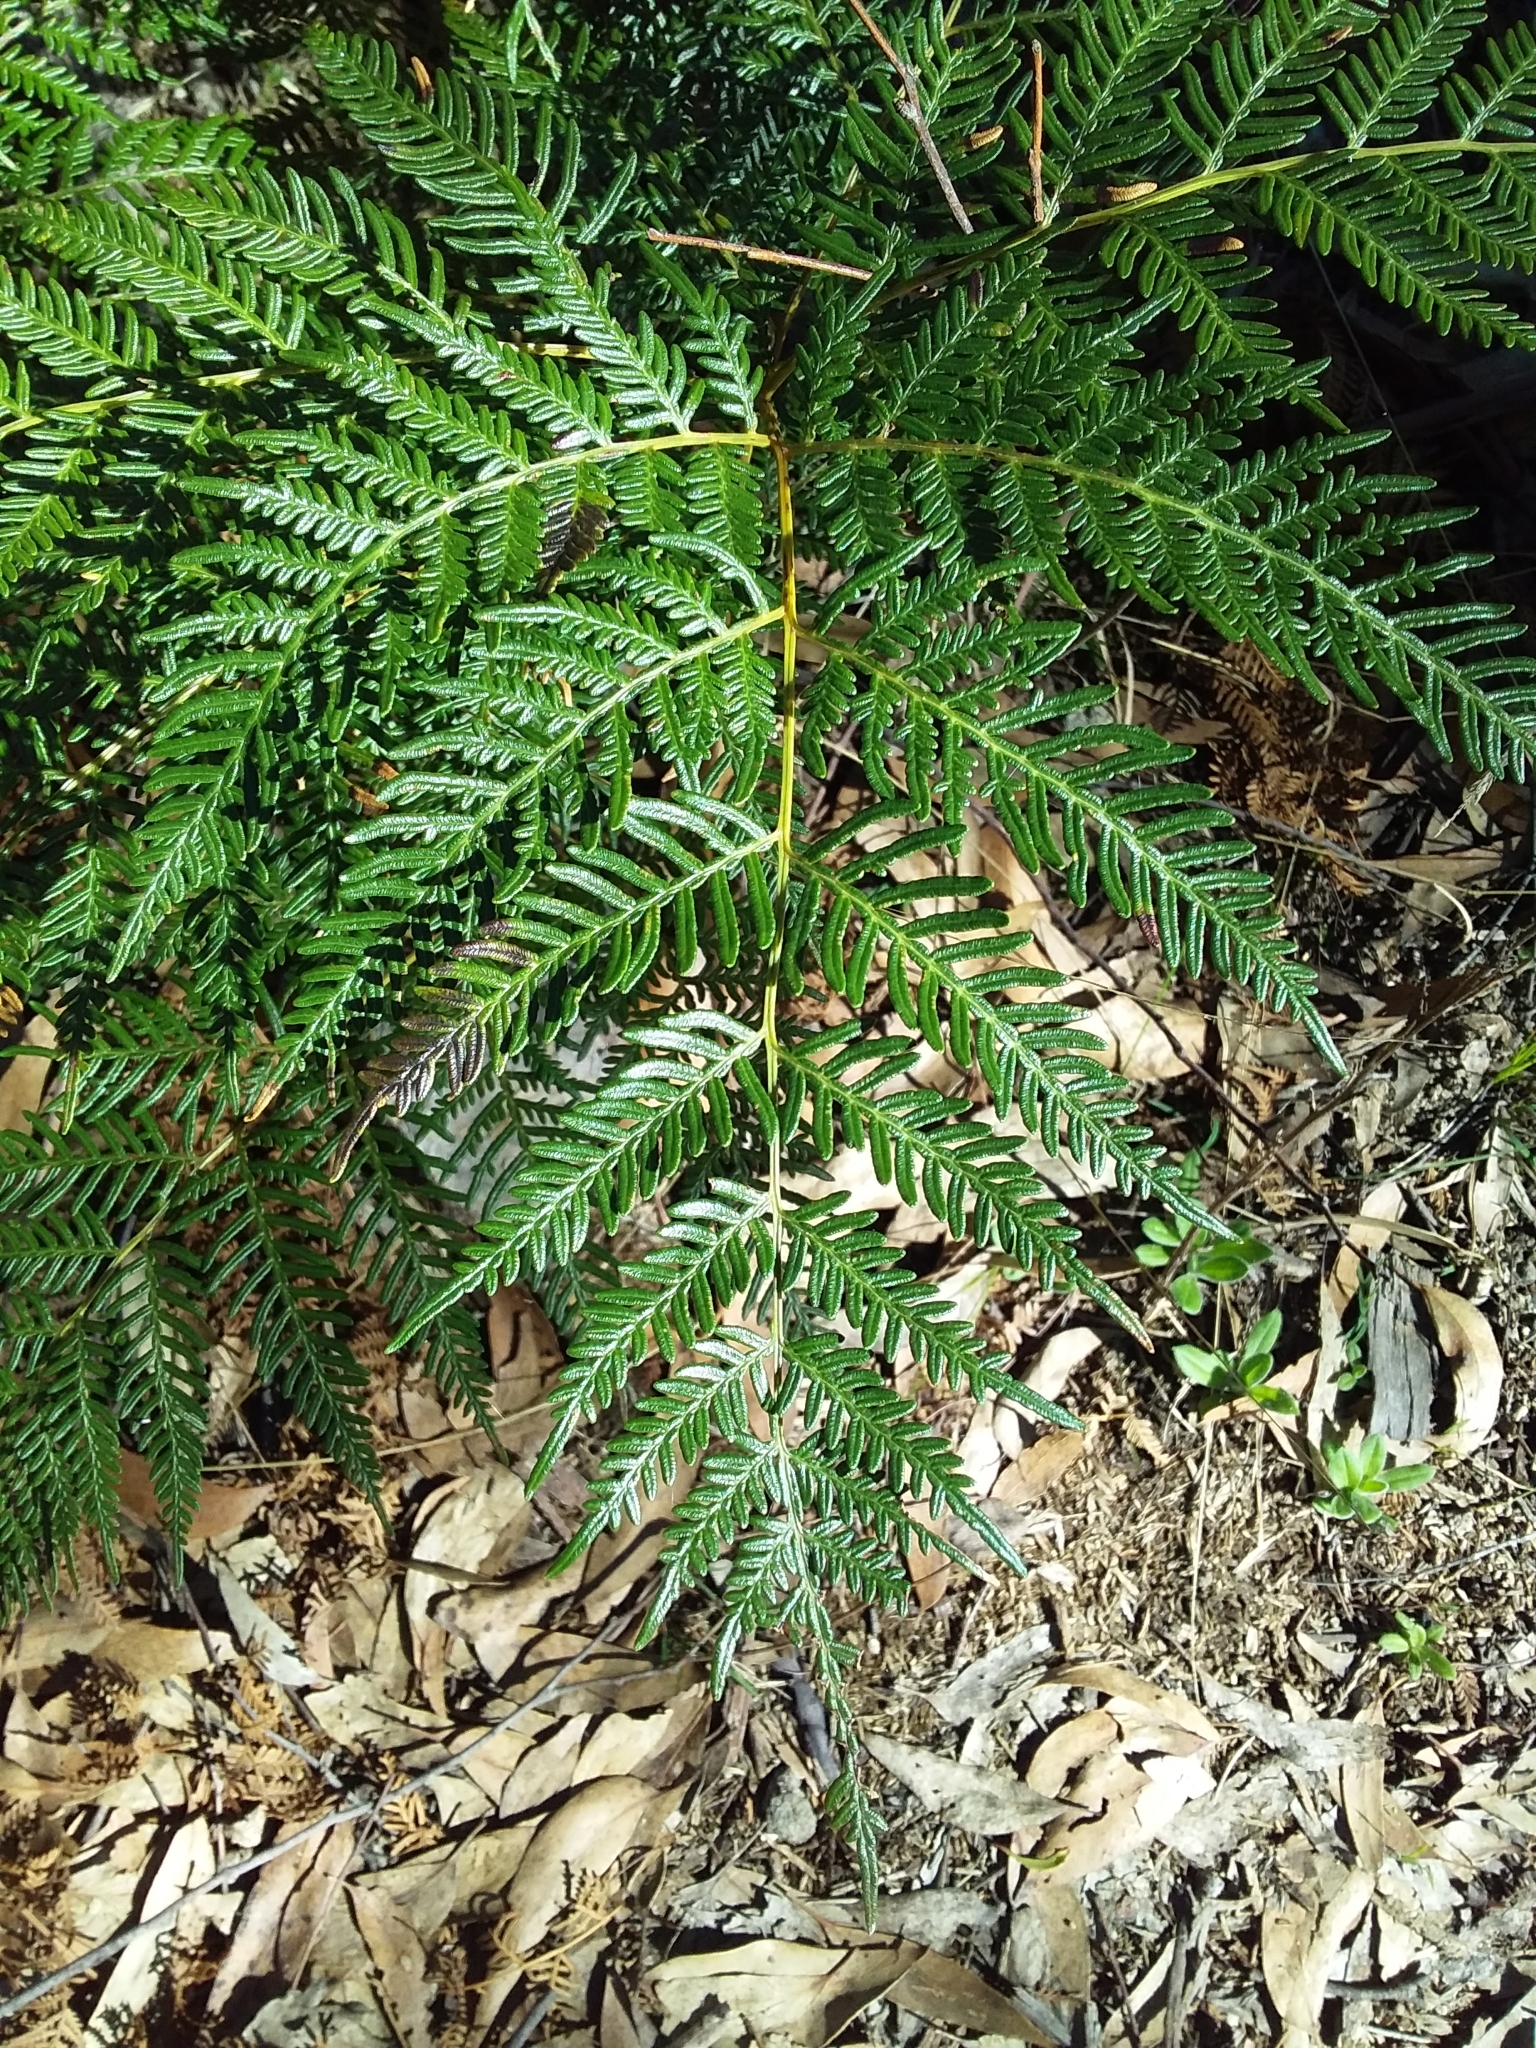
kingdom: Plantae
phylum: Tracheophyta
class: Polypodiopsida
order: Polypodiales
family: Dennstaedtiaceae
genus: Pteridium
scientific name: Pteridium esculentum
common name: Bracken fern
